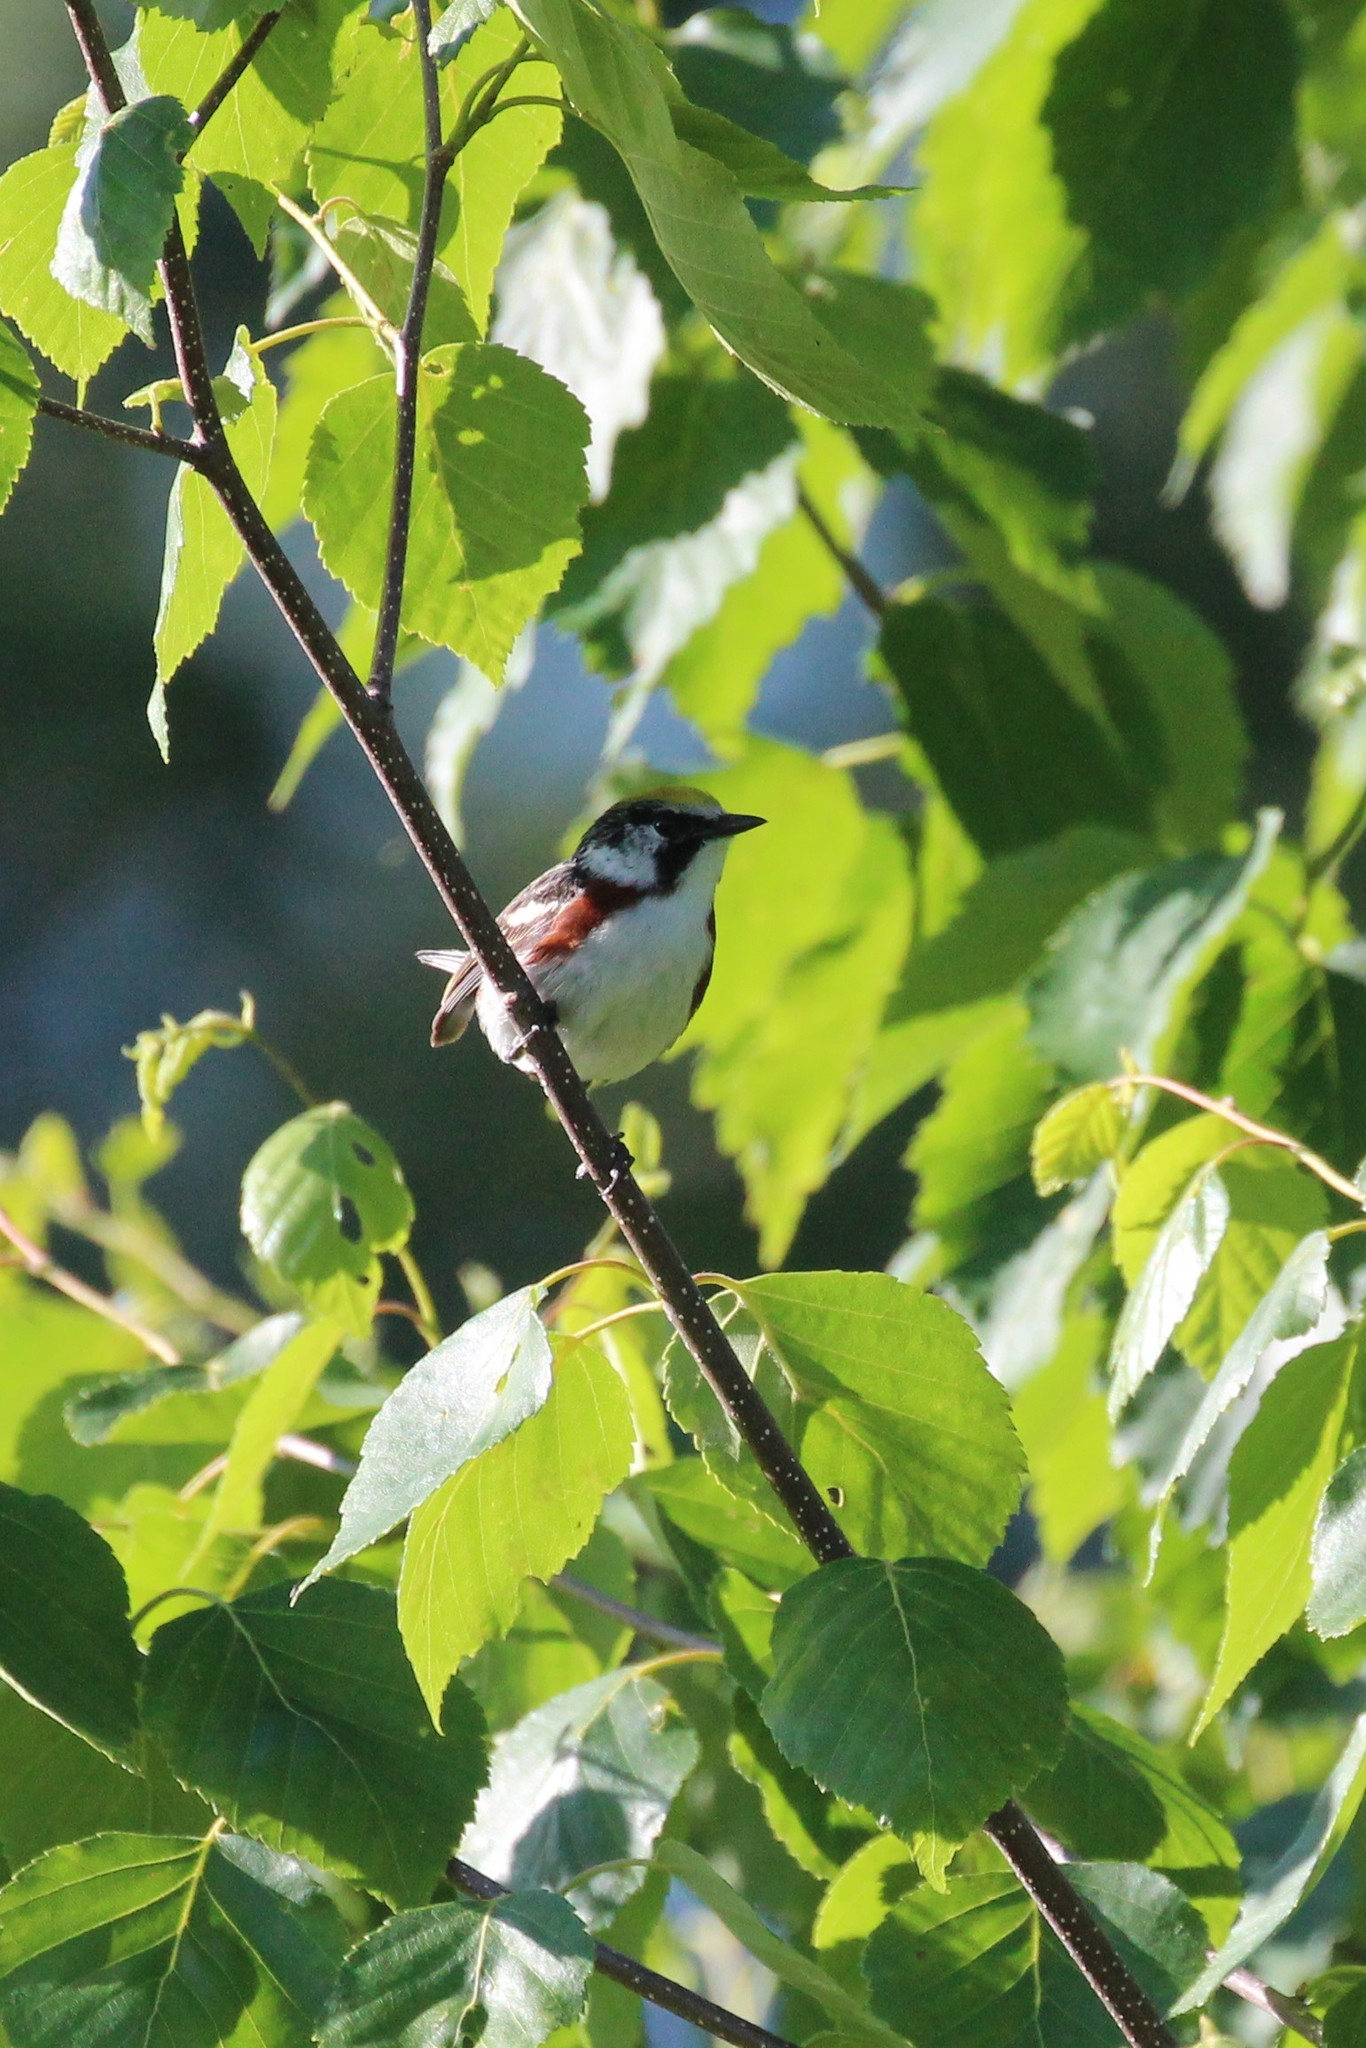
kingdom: Animalia
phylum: Chordata
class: Aves
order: Passeriformes
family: Parulidae
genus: Setophaga
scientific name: Setophaga pensylvanica
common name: Chestnut-sided warbler
